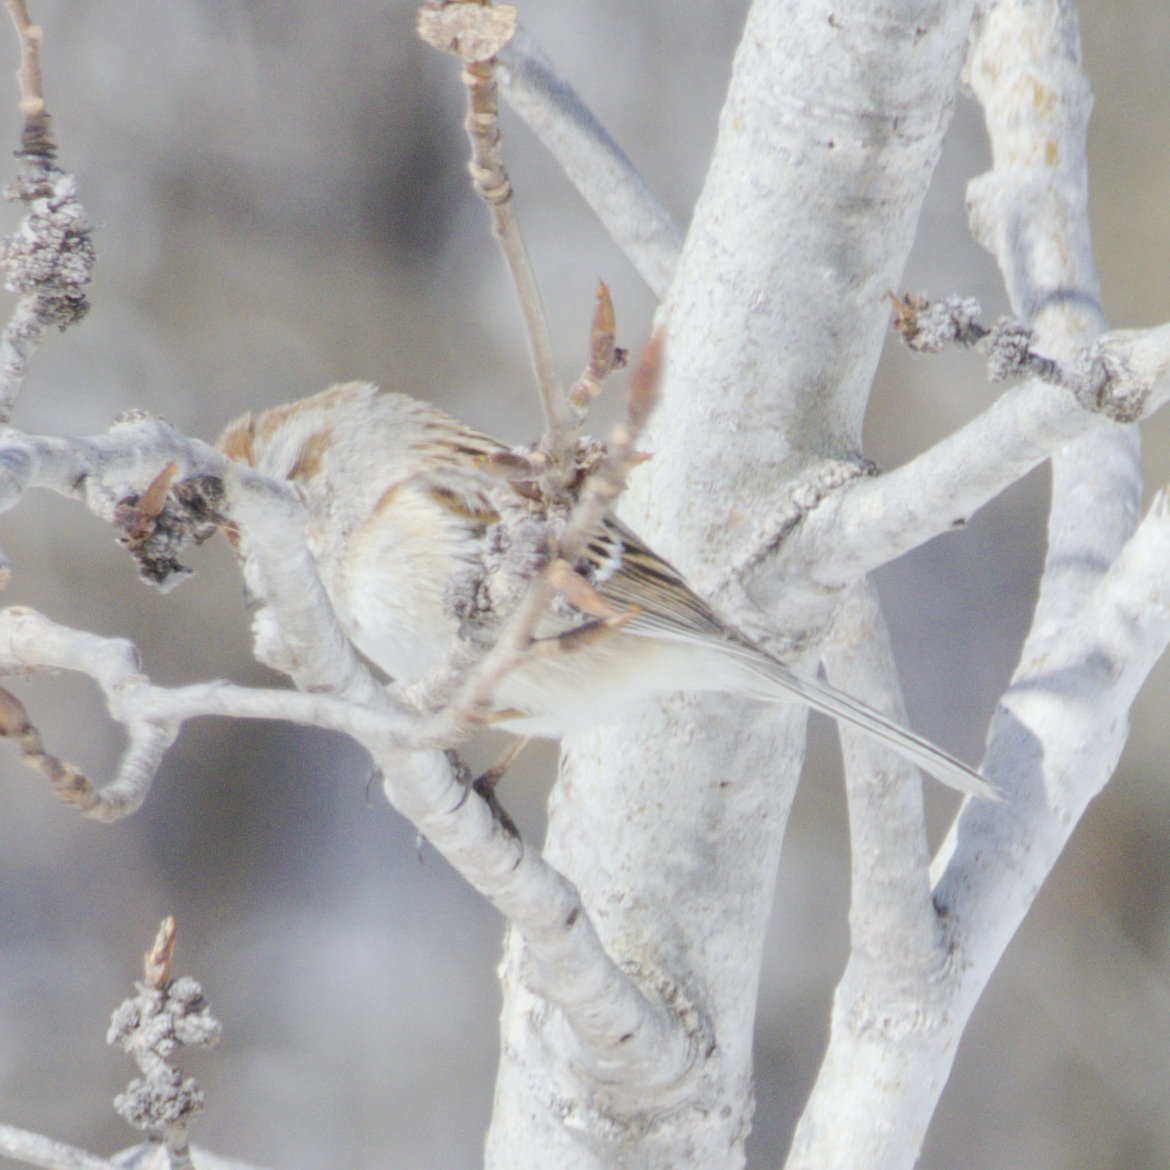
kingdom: Animalia
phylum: Chordata
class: Aves
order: Passeriformes
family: Passerellidae
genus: Spizelloides
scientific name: Spizelloides arborea
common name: American tree sparrow
